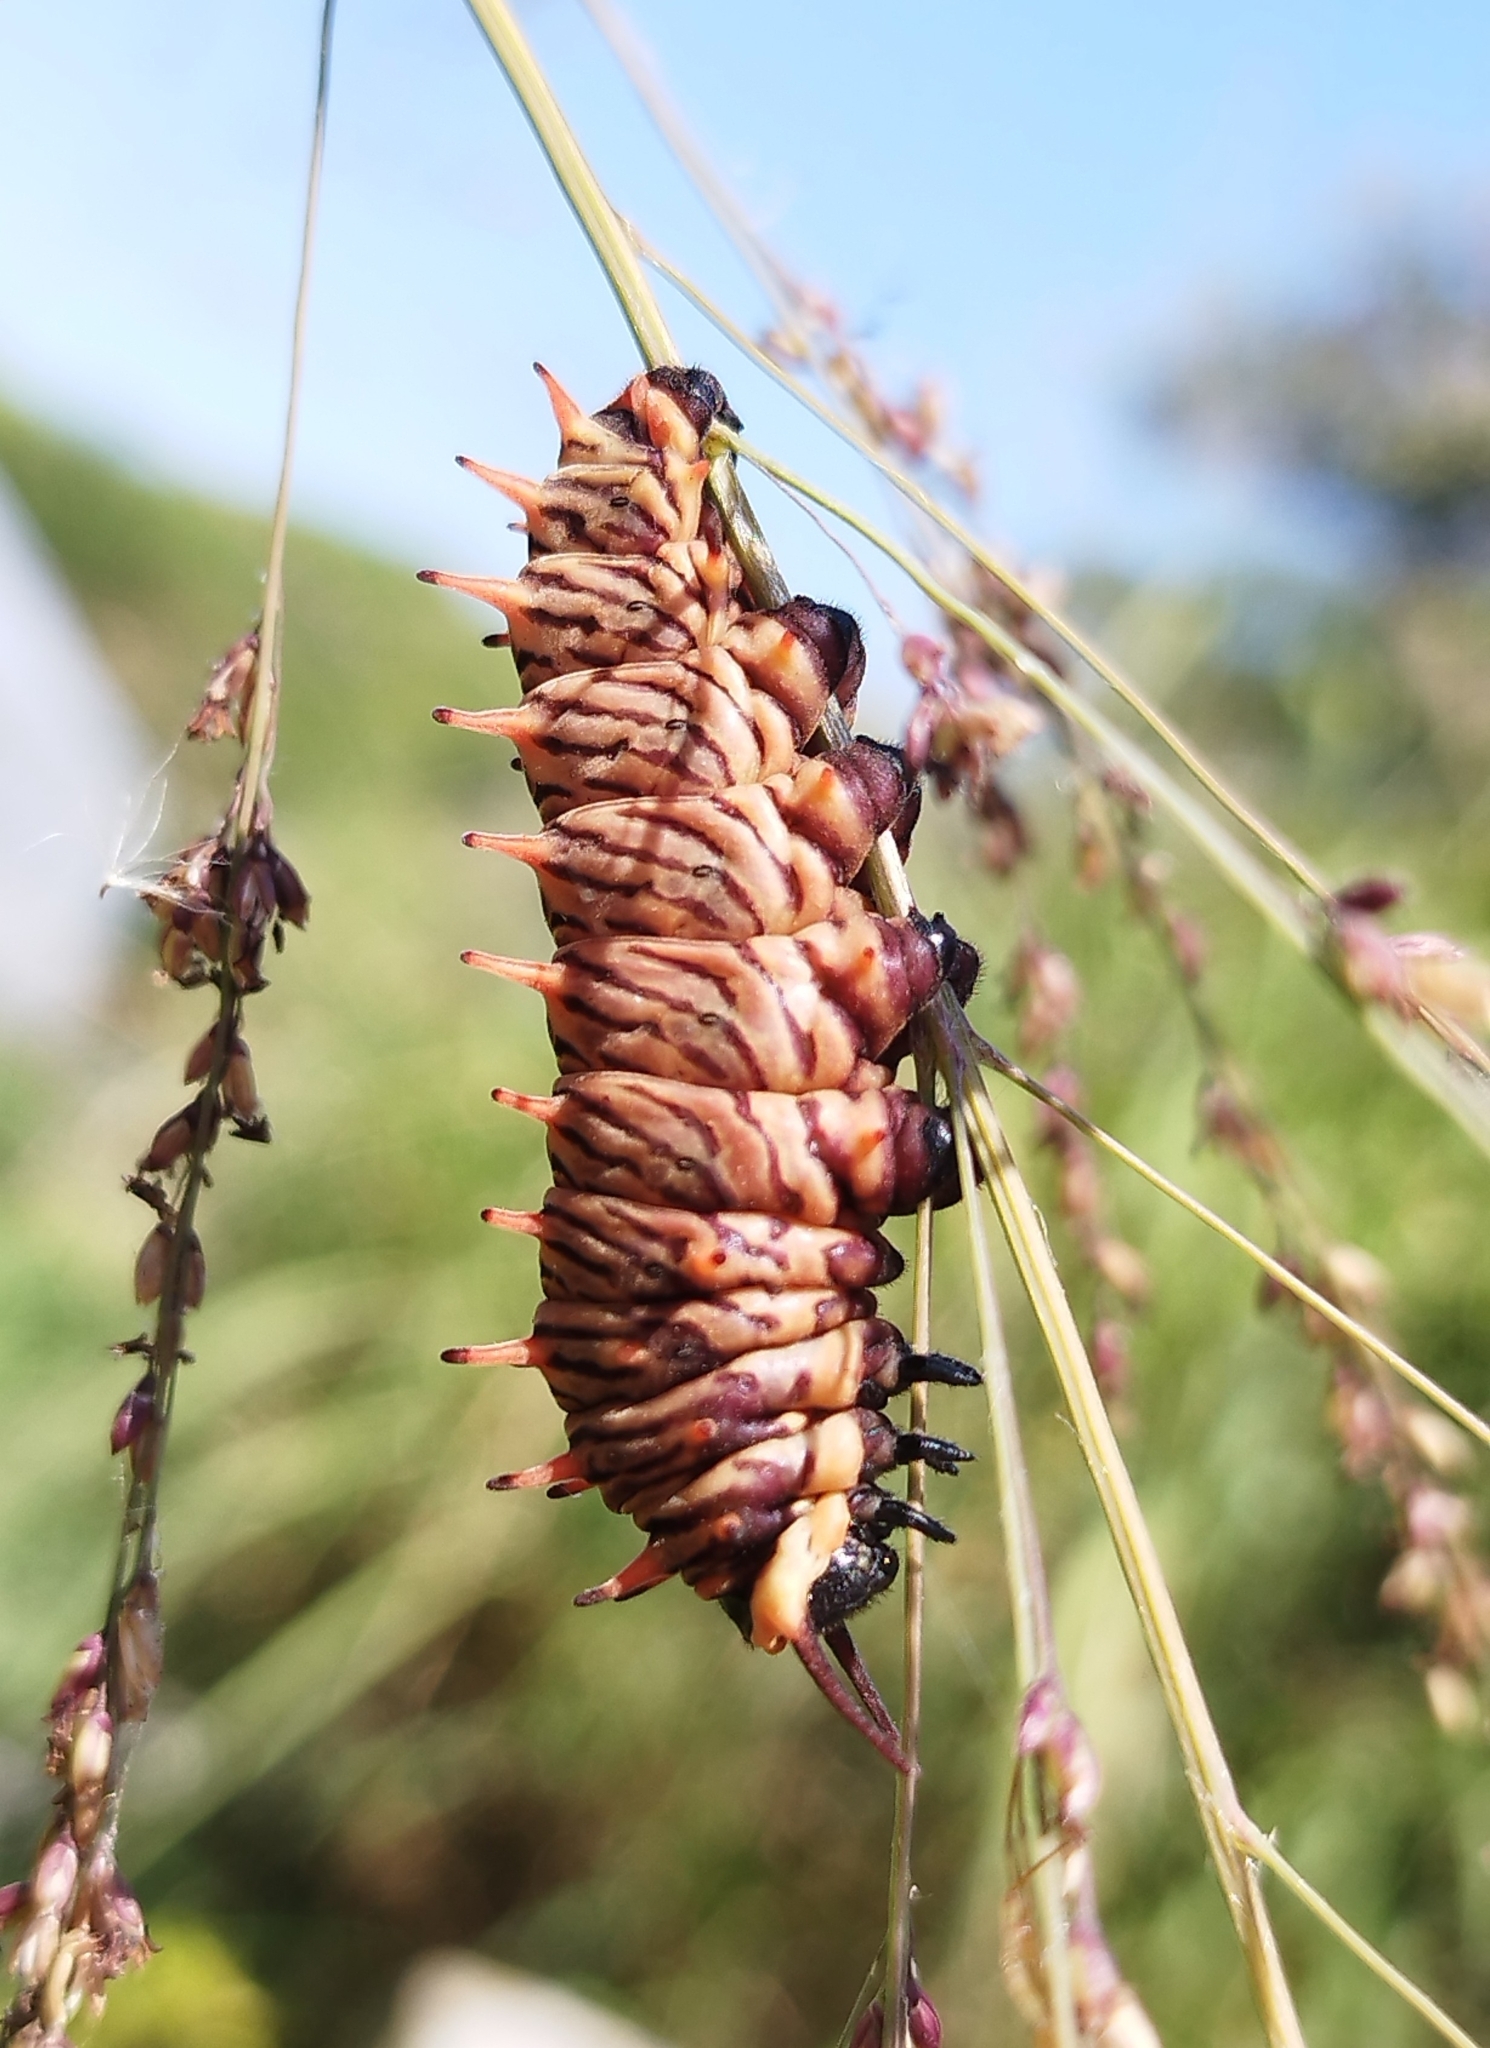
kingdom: Animalia
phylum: Arthropoda
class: Insecta
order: Lepidoptera
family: Papilionidae
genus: Battus
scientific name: Battus polydamas
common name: Polydamas swallowtail
